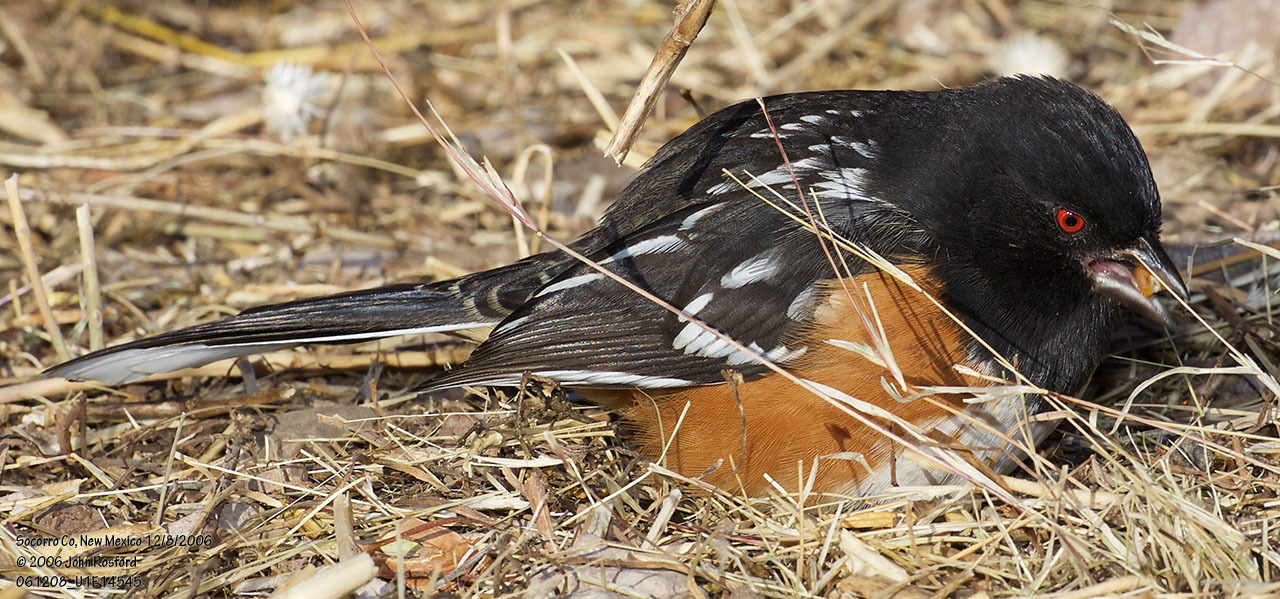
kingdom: Animalia
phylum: Chordata
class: Aves
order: Passeriformes
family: Passerellidae
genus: Pipilo
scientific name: Pipilo maculatus
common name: Spotted towhee
